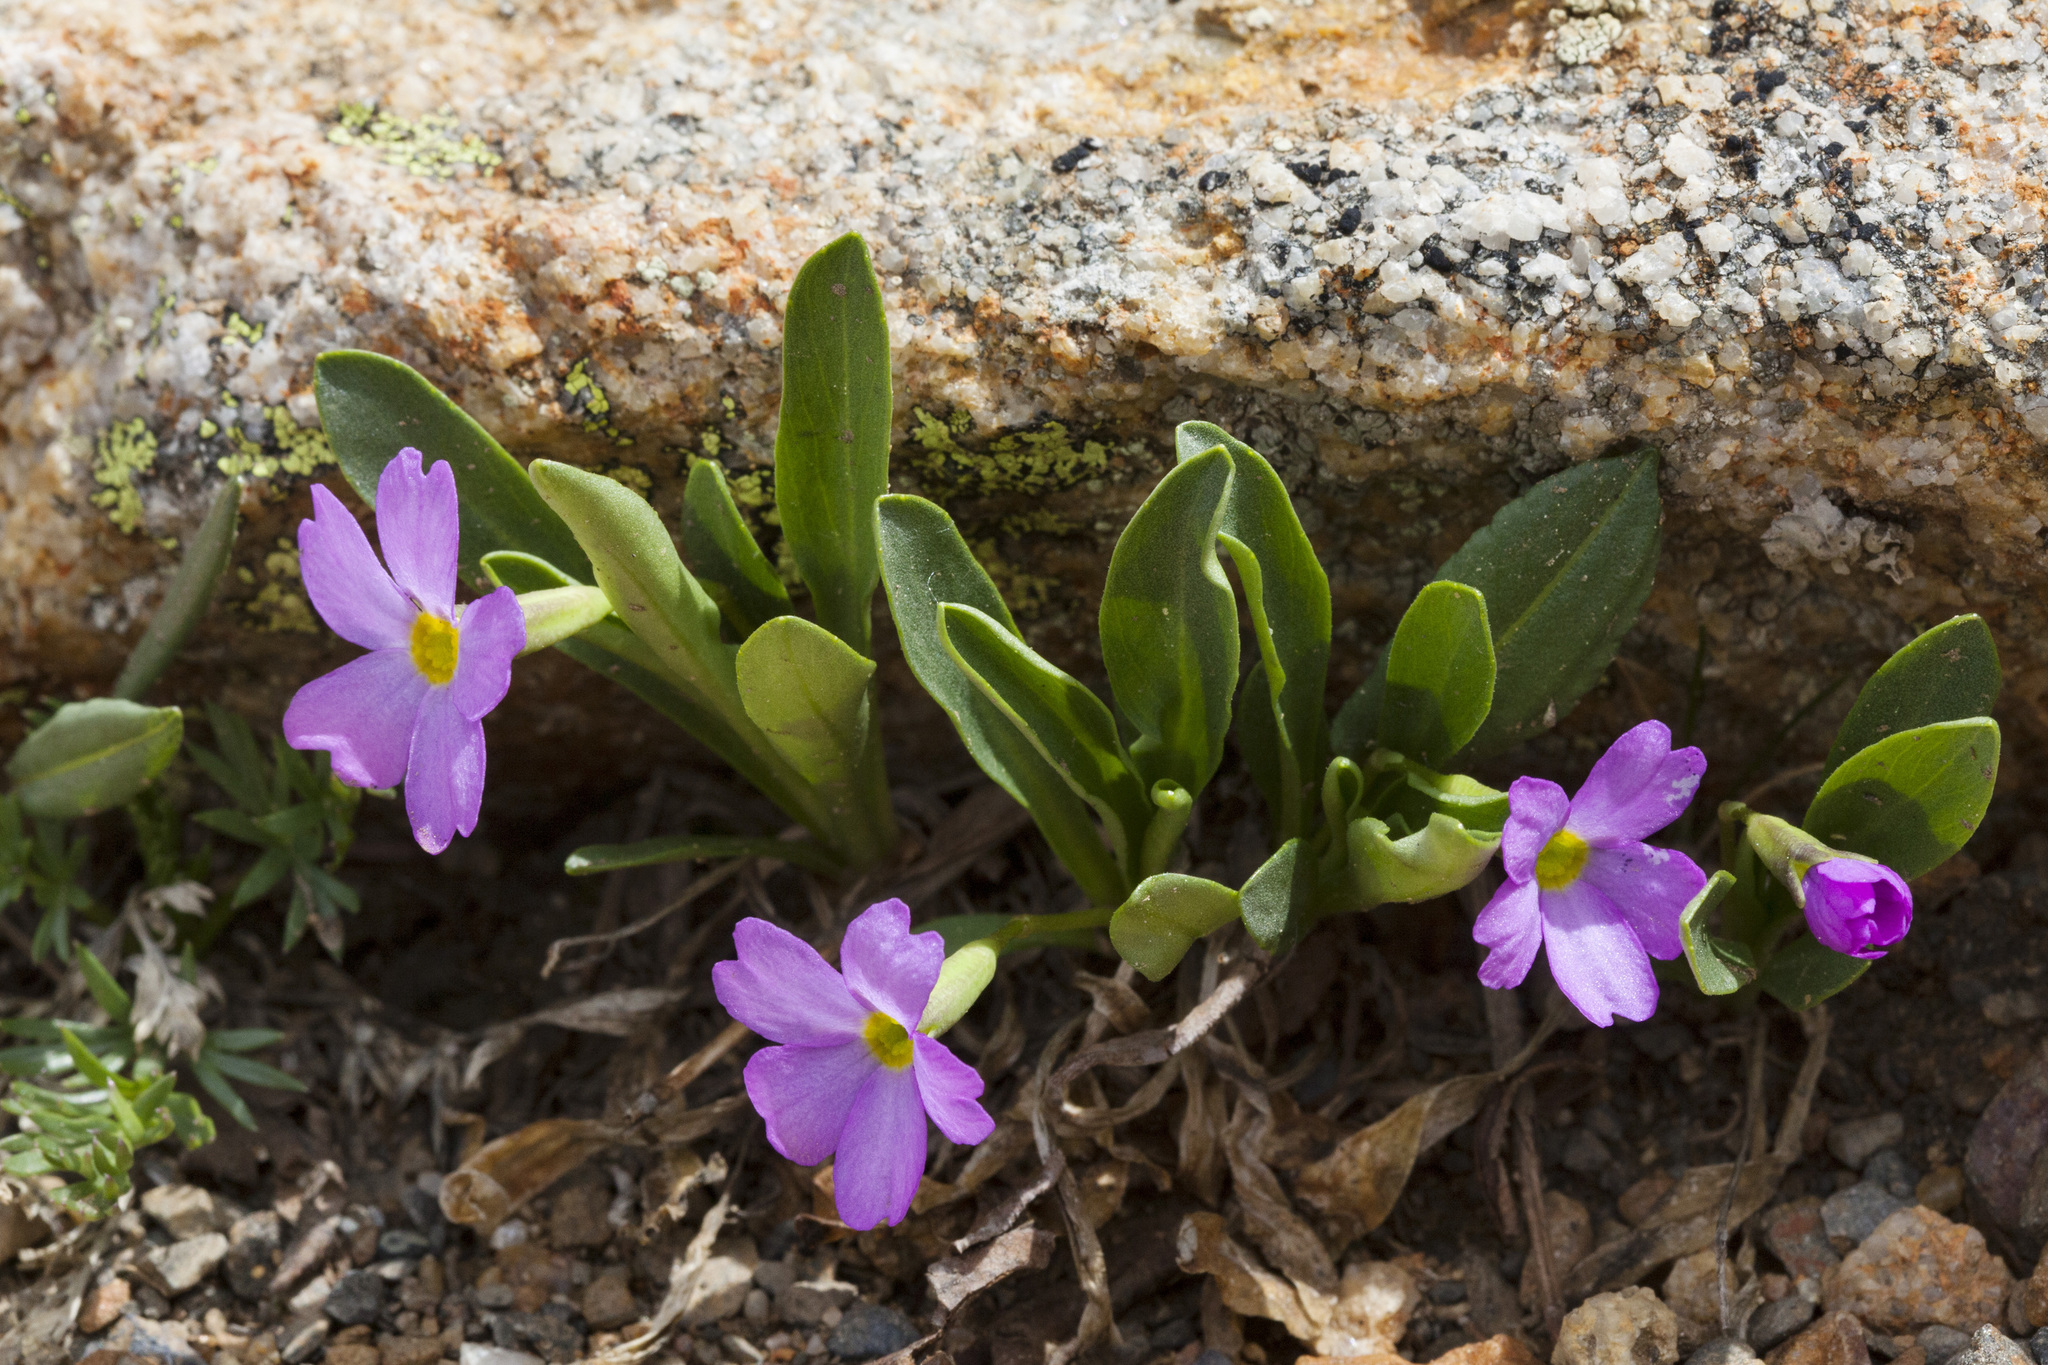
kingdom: Plantae
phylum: Tracheophyta
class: Magnoliopsida
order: Ericales
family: Primulaceae
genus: Primula
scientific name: Primula angustifolia
